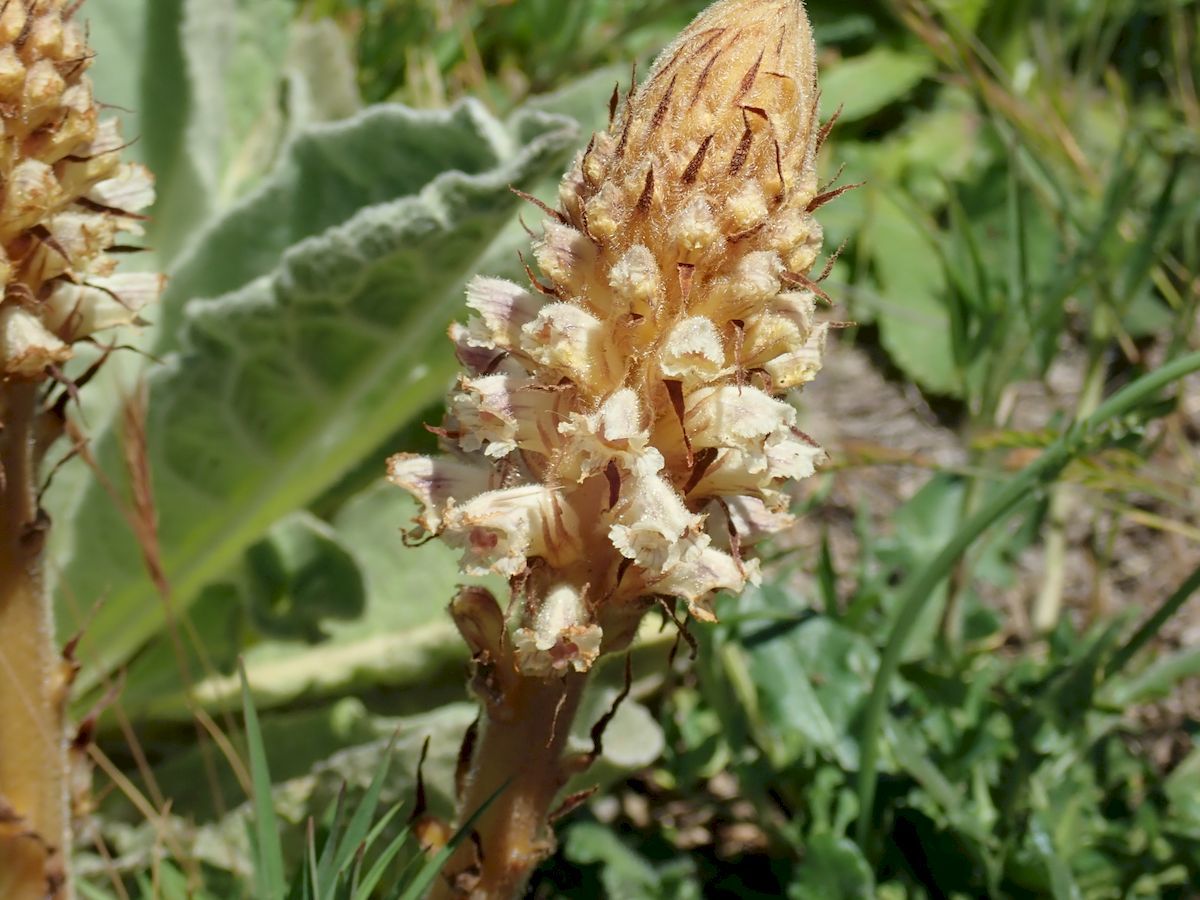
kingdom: Plantae
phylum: Tracheophyta
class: Magnoliopsida
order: Lamiales
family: Orobanchaceae
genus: Orobanche
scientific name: Orobanche minor
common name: Common broomrape
